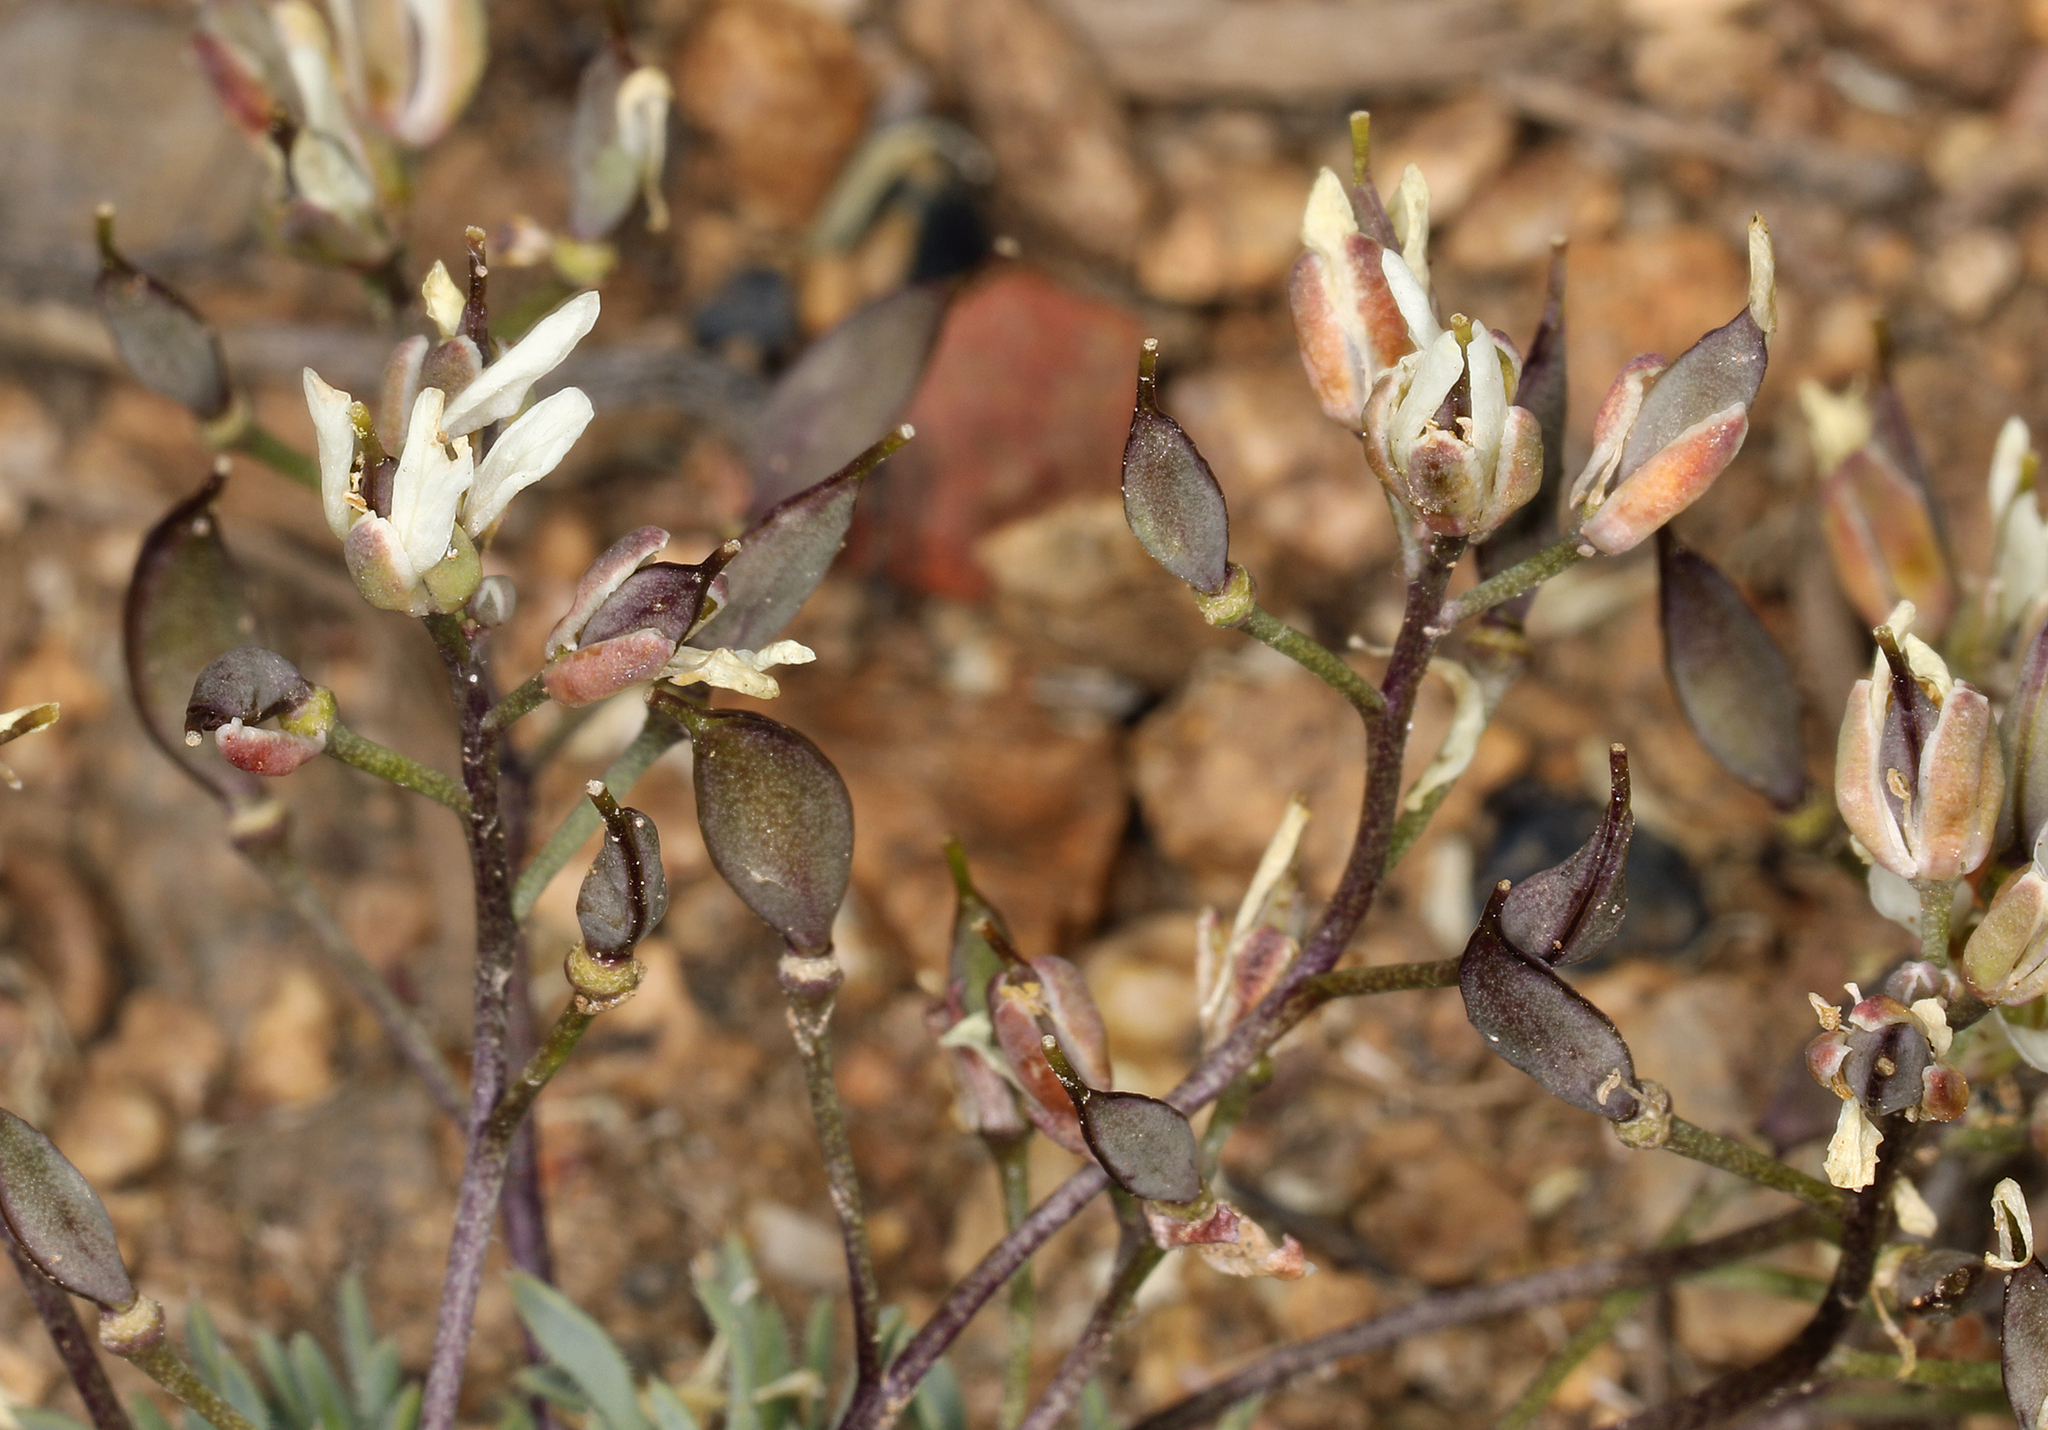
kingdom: Plantae
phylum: Tracheophyta
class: Magnoliopsida
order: Brassicales
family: Brassicaceae
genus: Cusickiella
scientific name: Cusickiella douglasii
